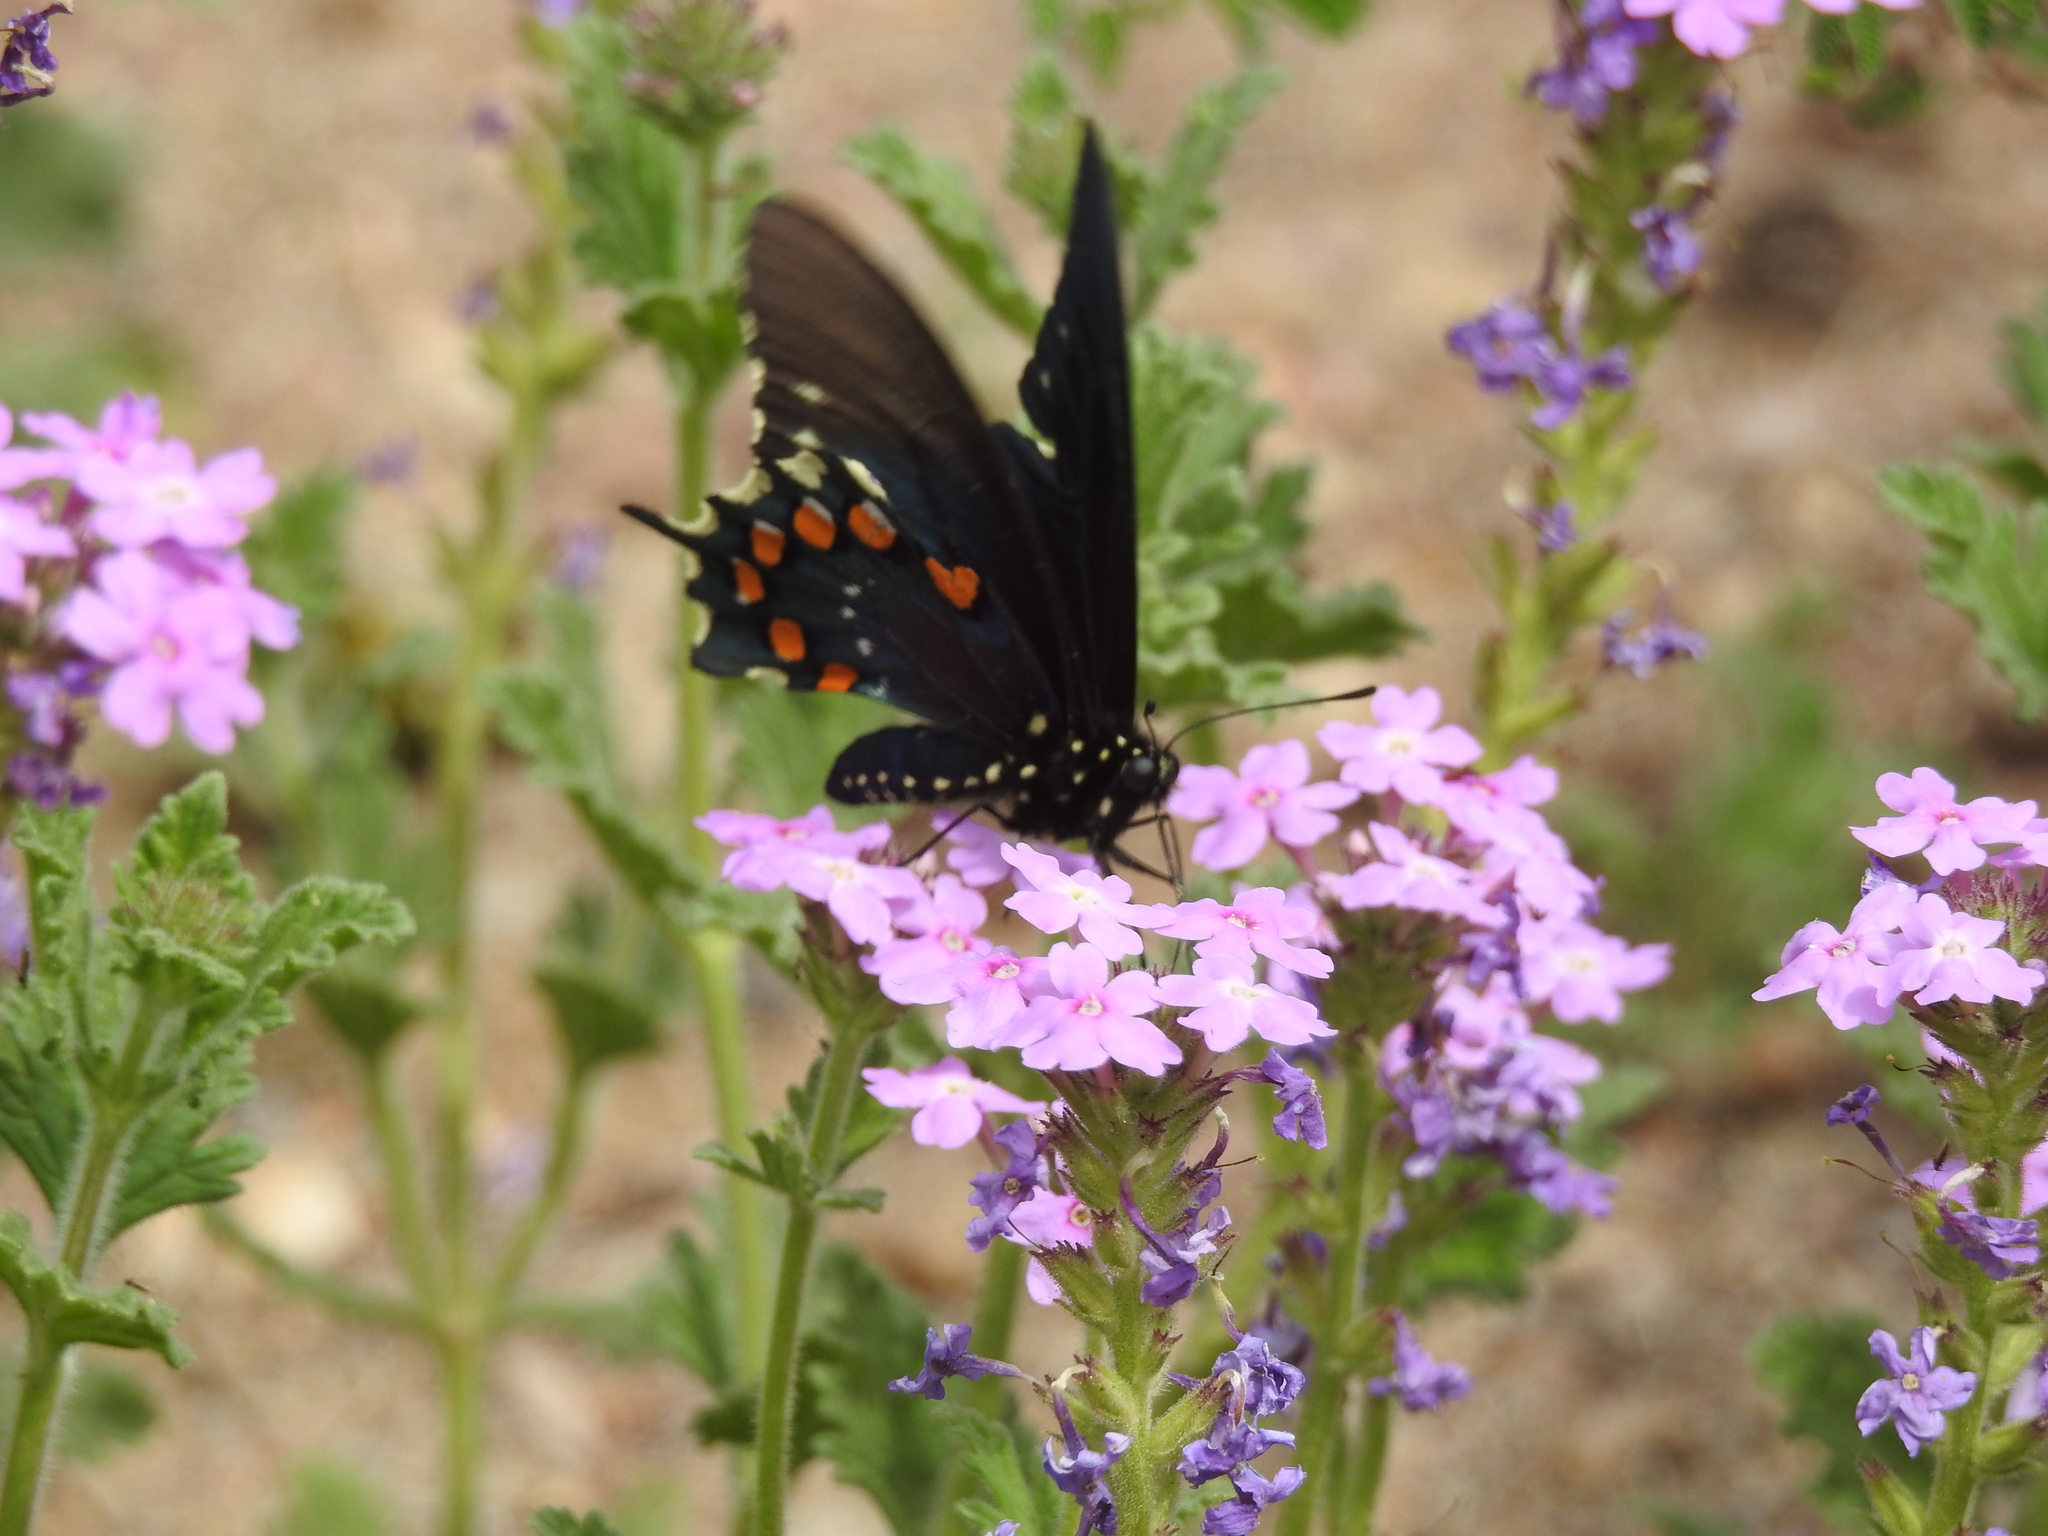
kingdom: Animalia
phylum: Arthropoda
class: Insecta
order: Lepidoptera
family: Papilionidae
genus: Battus
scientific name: Battus philenor
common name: Pipevine swallowtail
